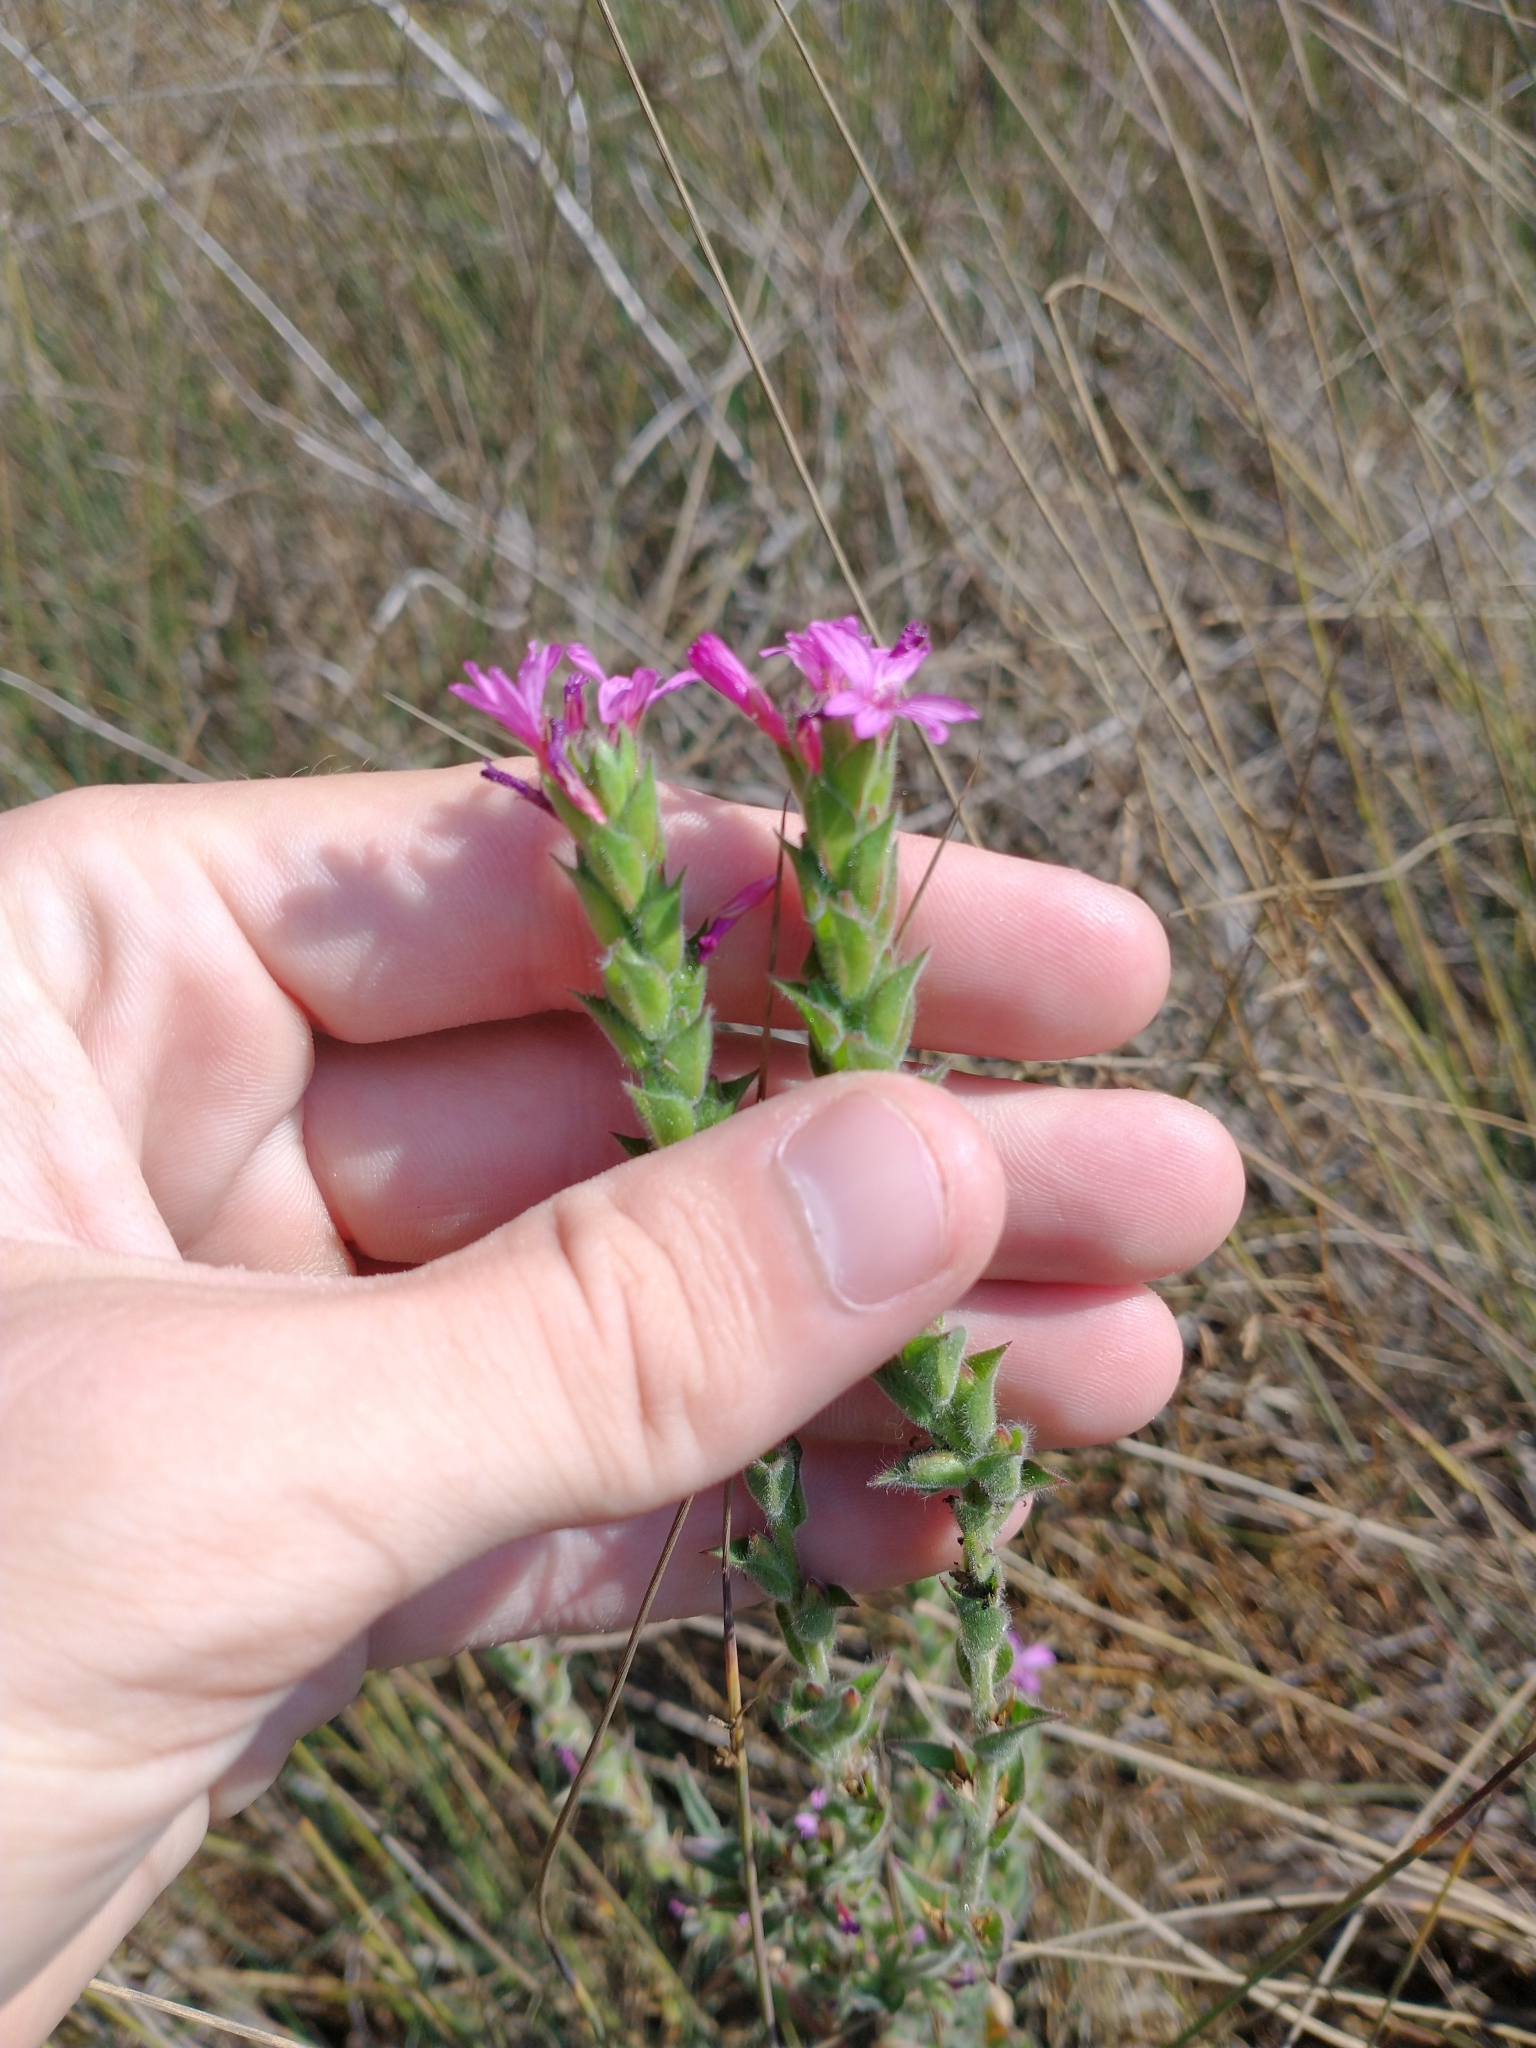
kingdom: Plantae
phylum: Tracheophyta
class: Magnoliopsida
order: Myrtales
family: Onagraceae
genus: Epilobium
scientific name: Epilobium densiflorum
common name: Dense spike-primrose
